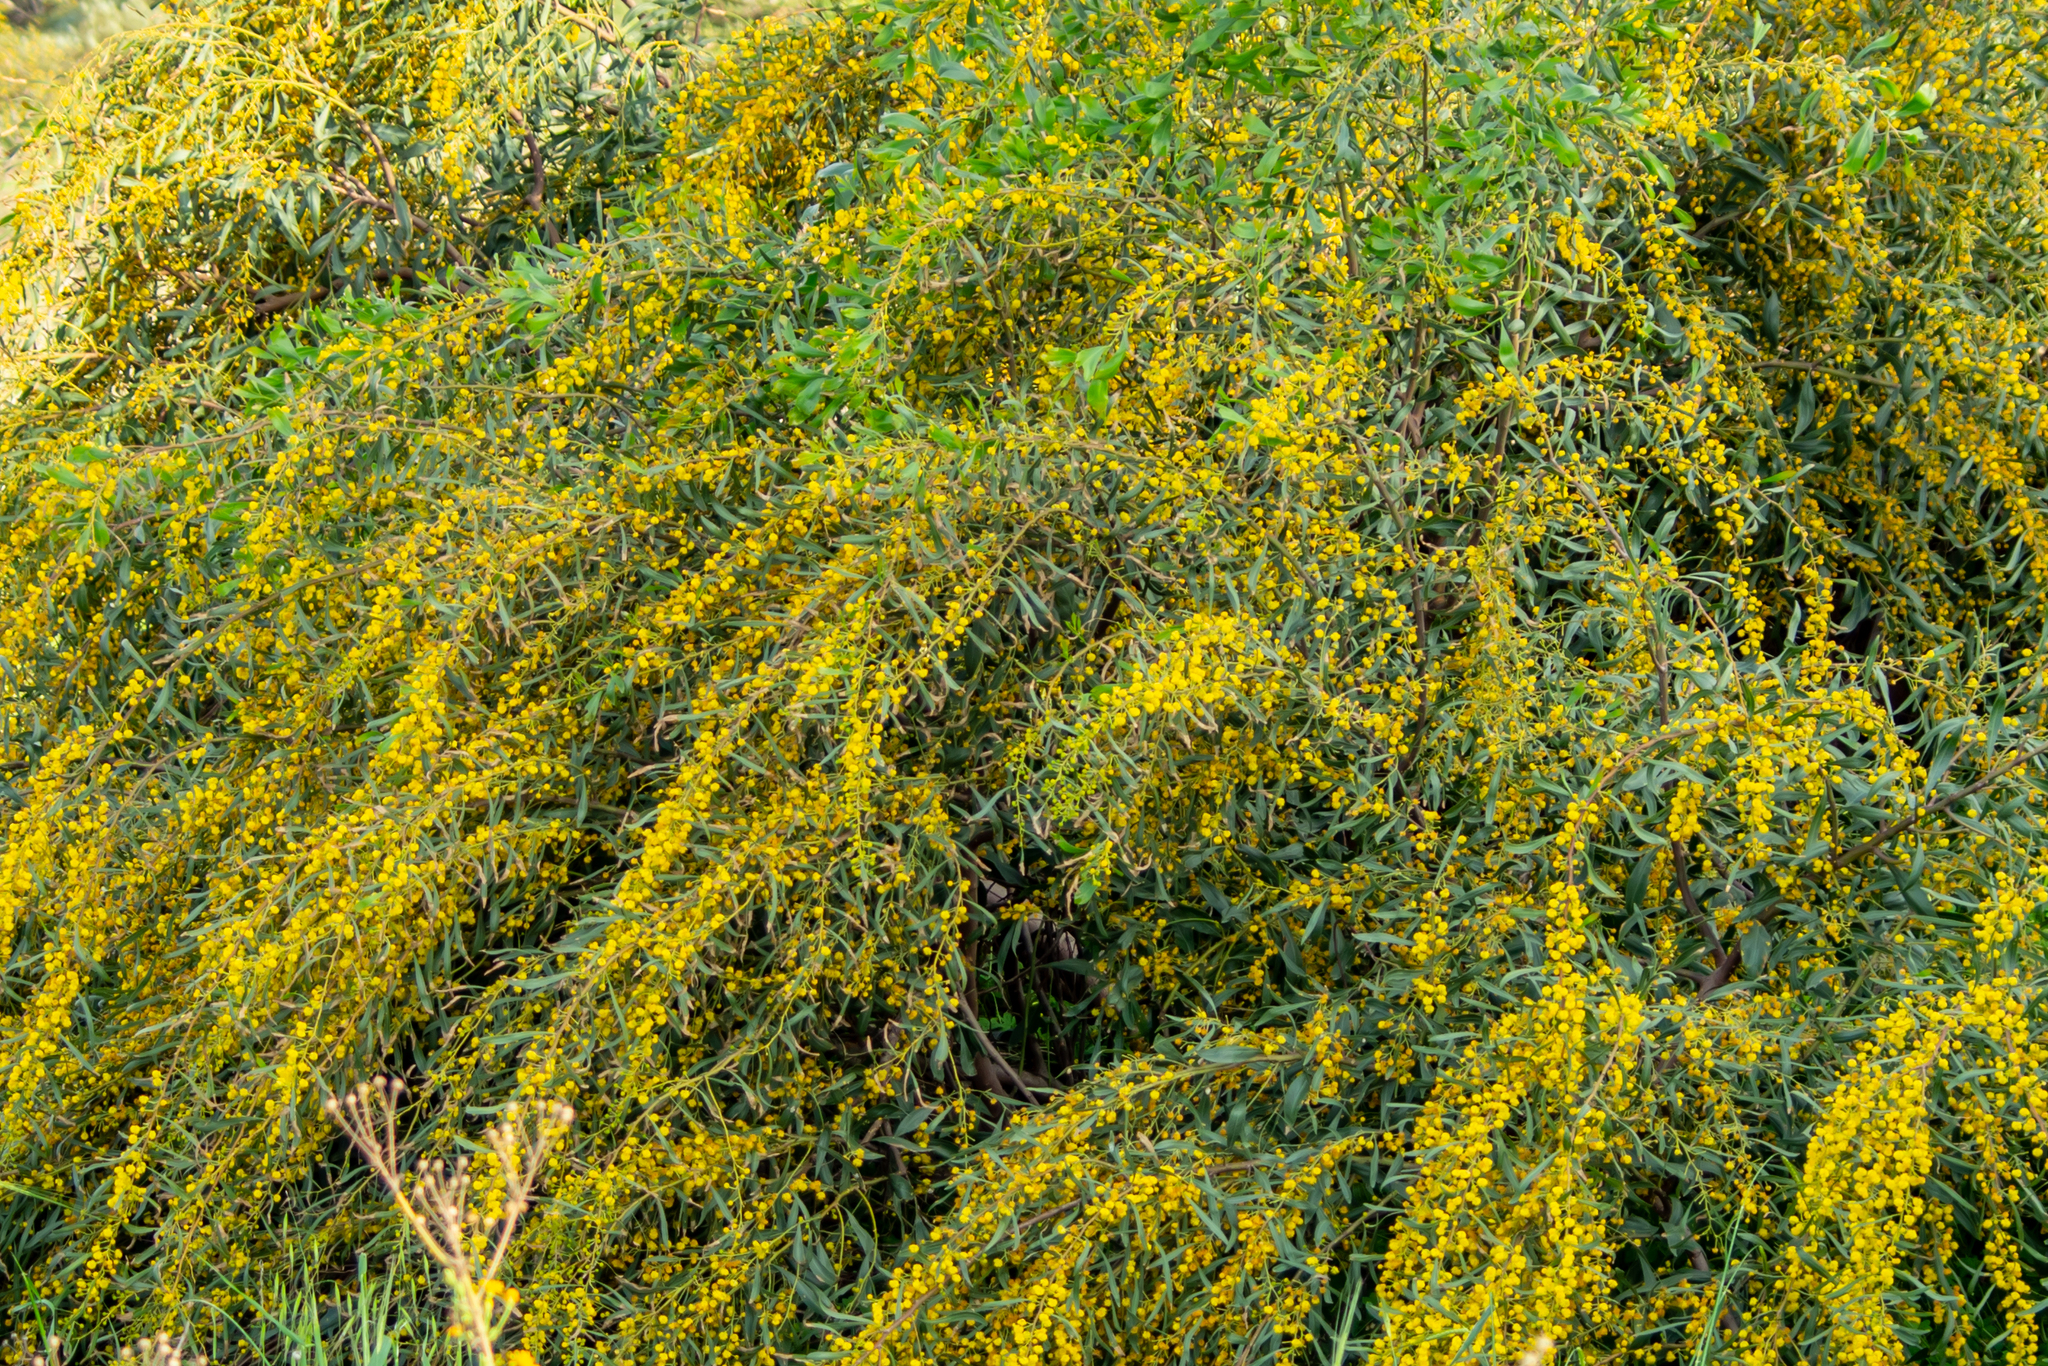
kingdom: Plantae
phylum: Tracheophyta
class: Magnoliopsida
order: Fabales
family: Fabaceae
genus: Acacia
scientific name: Acacia saligna
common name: Orange wattle
